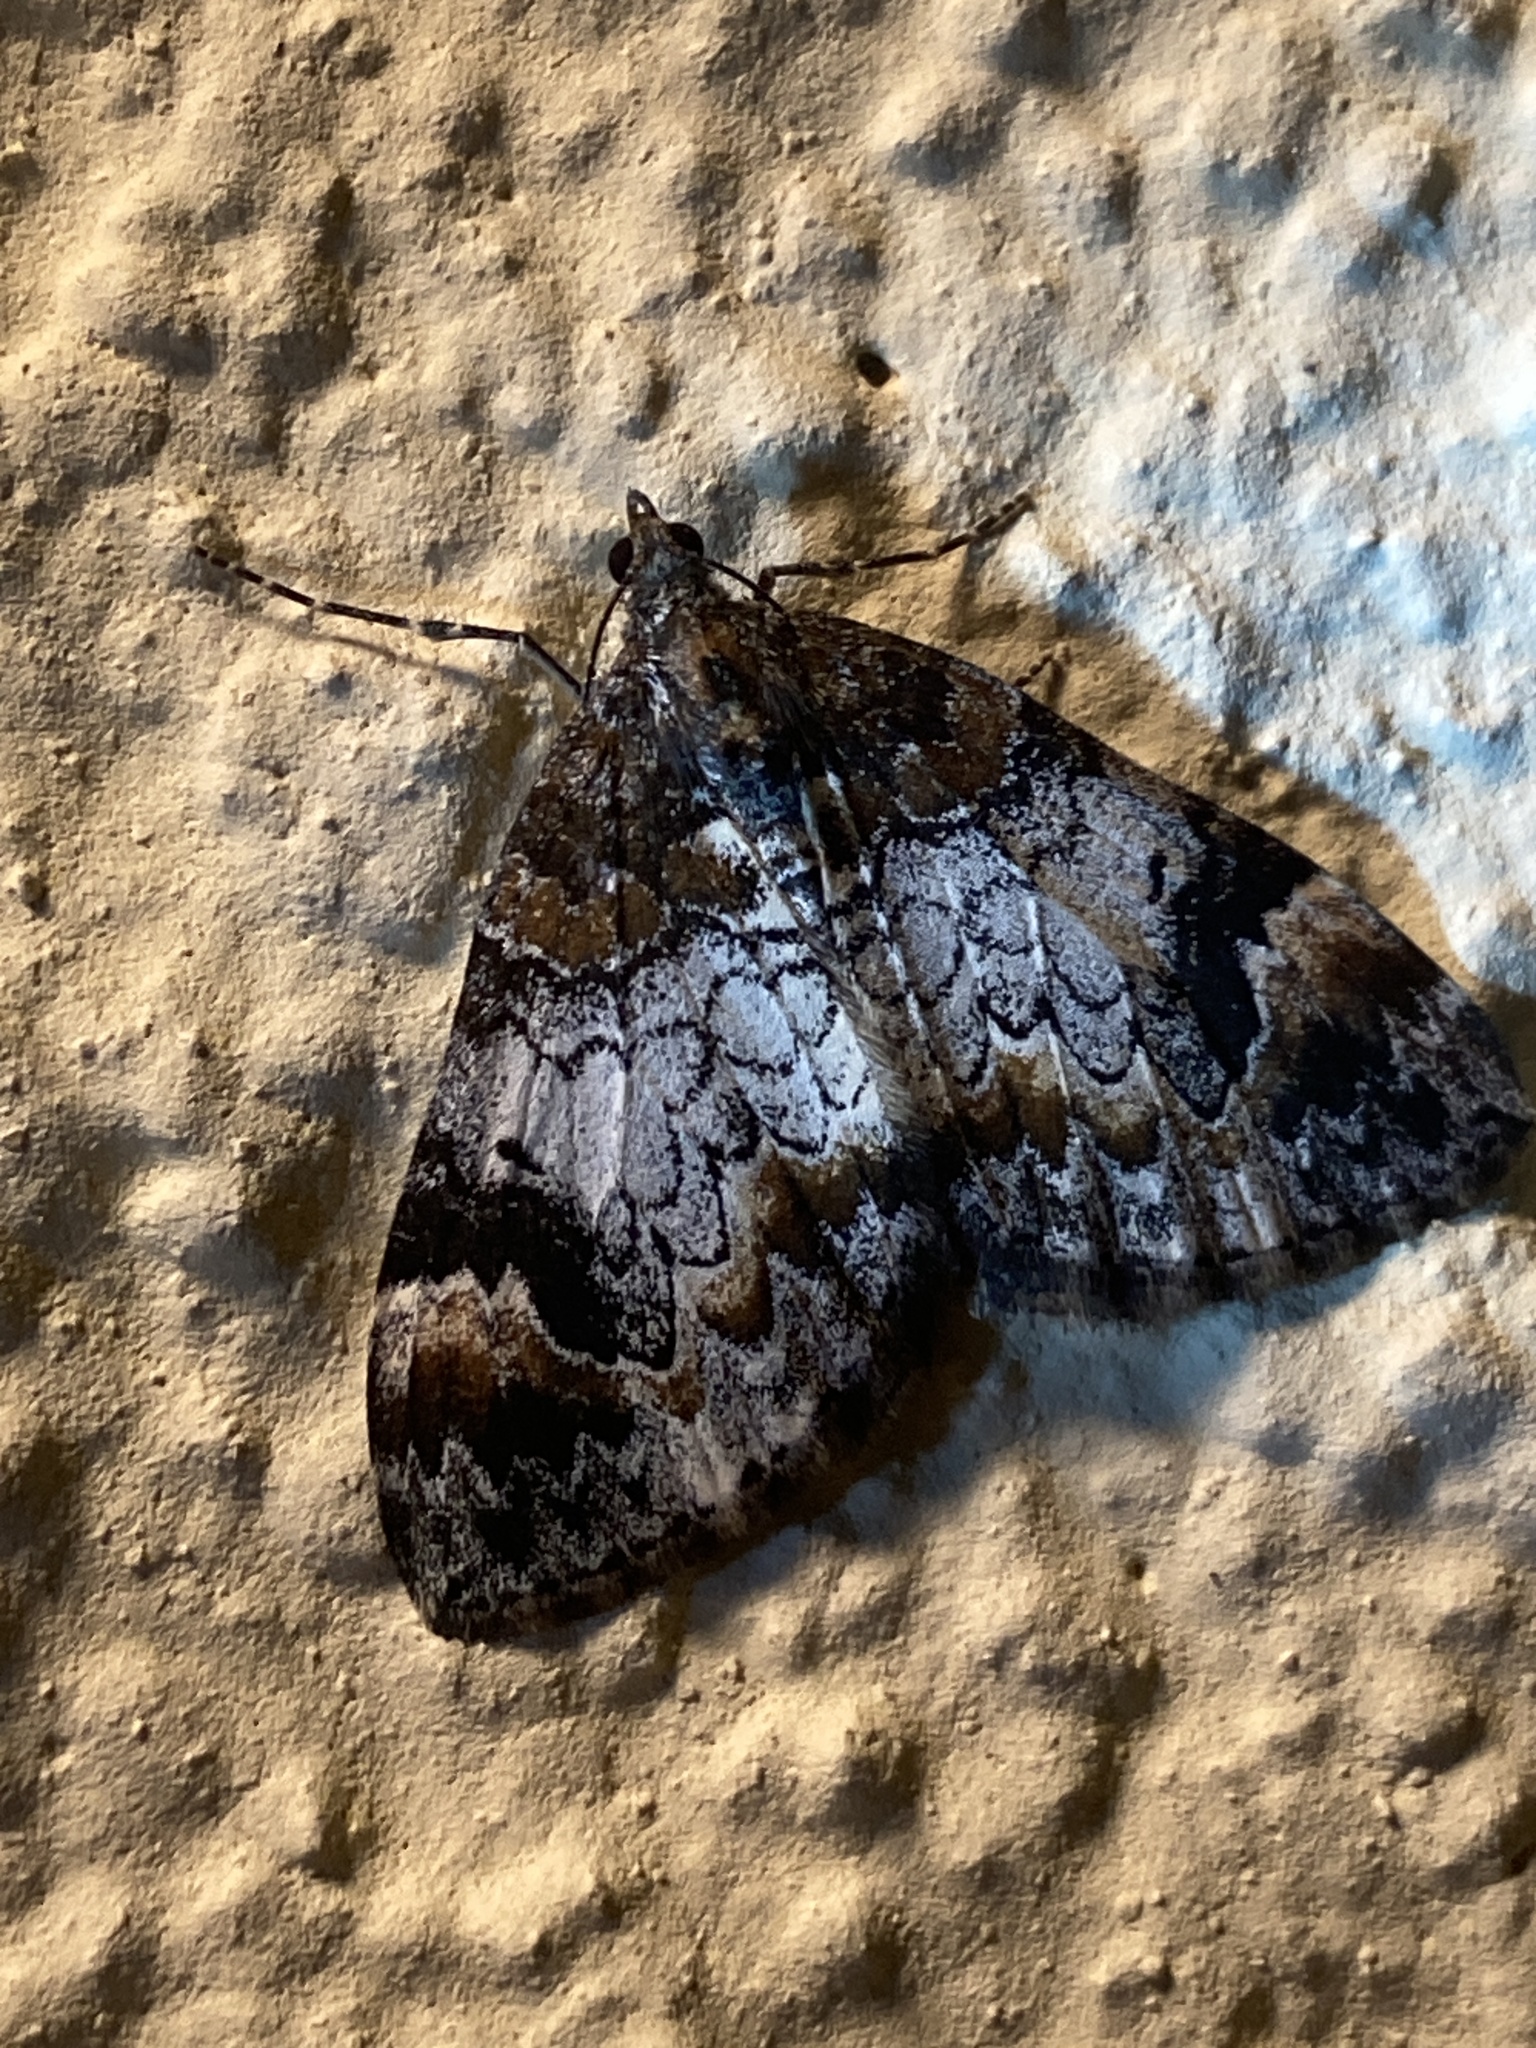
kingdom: Animalia
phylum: Arthropoda
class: Insecta
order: Lepidoptera
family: Geometridae
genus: Dysstroma
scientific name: Dysstroma truncata
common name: Common marbled carpet
